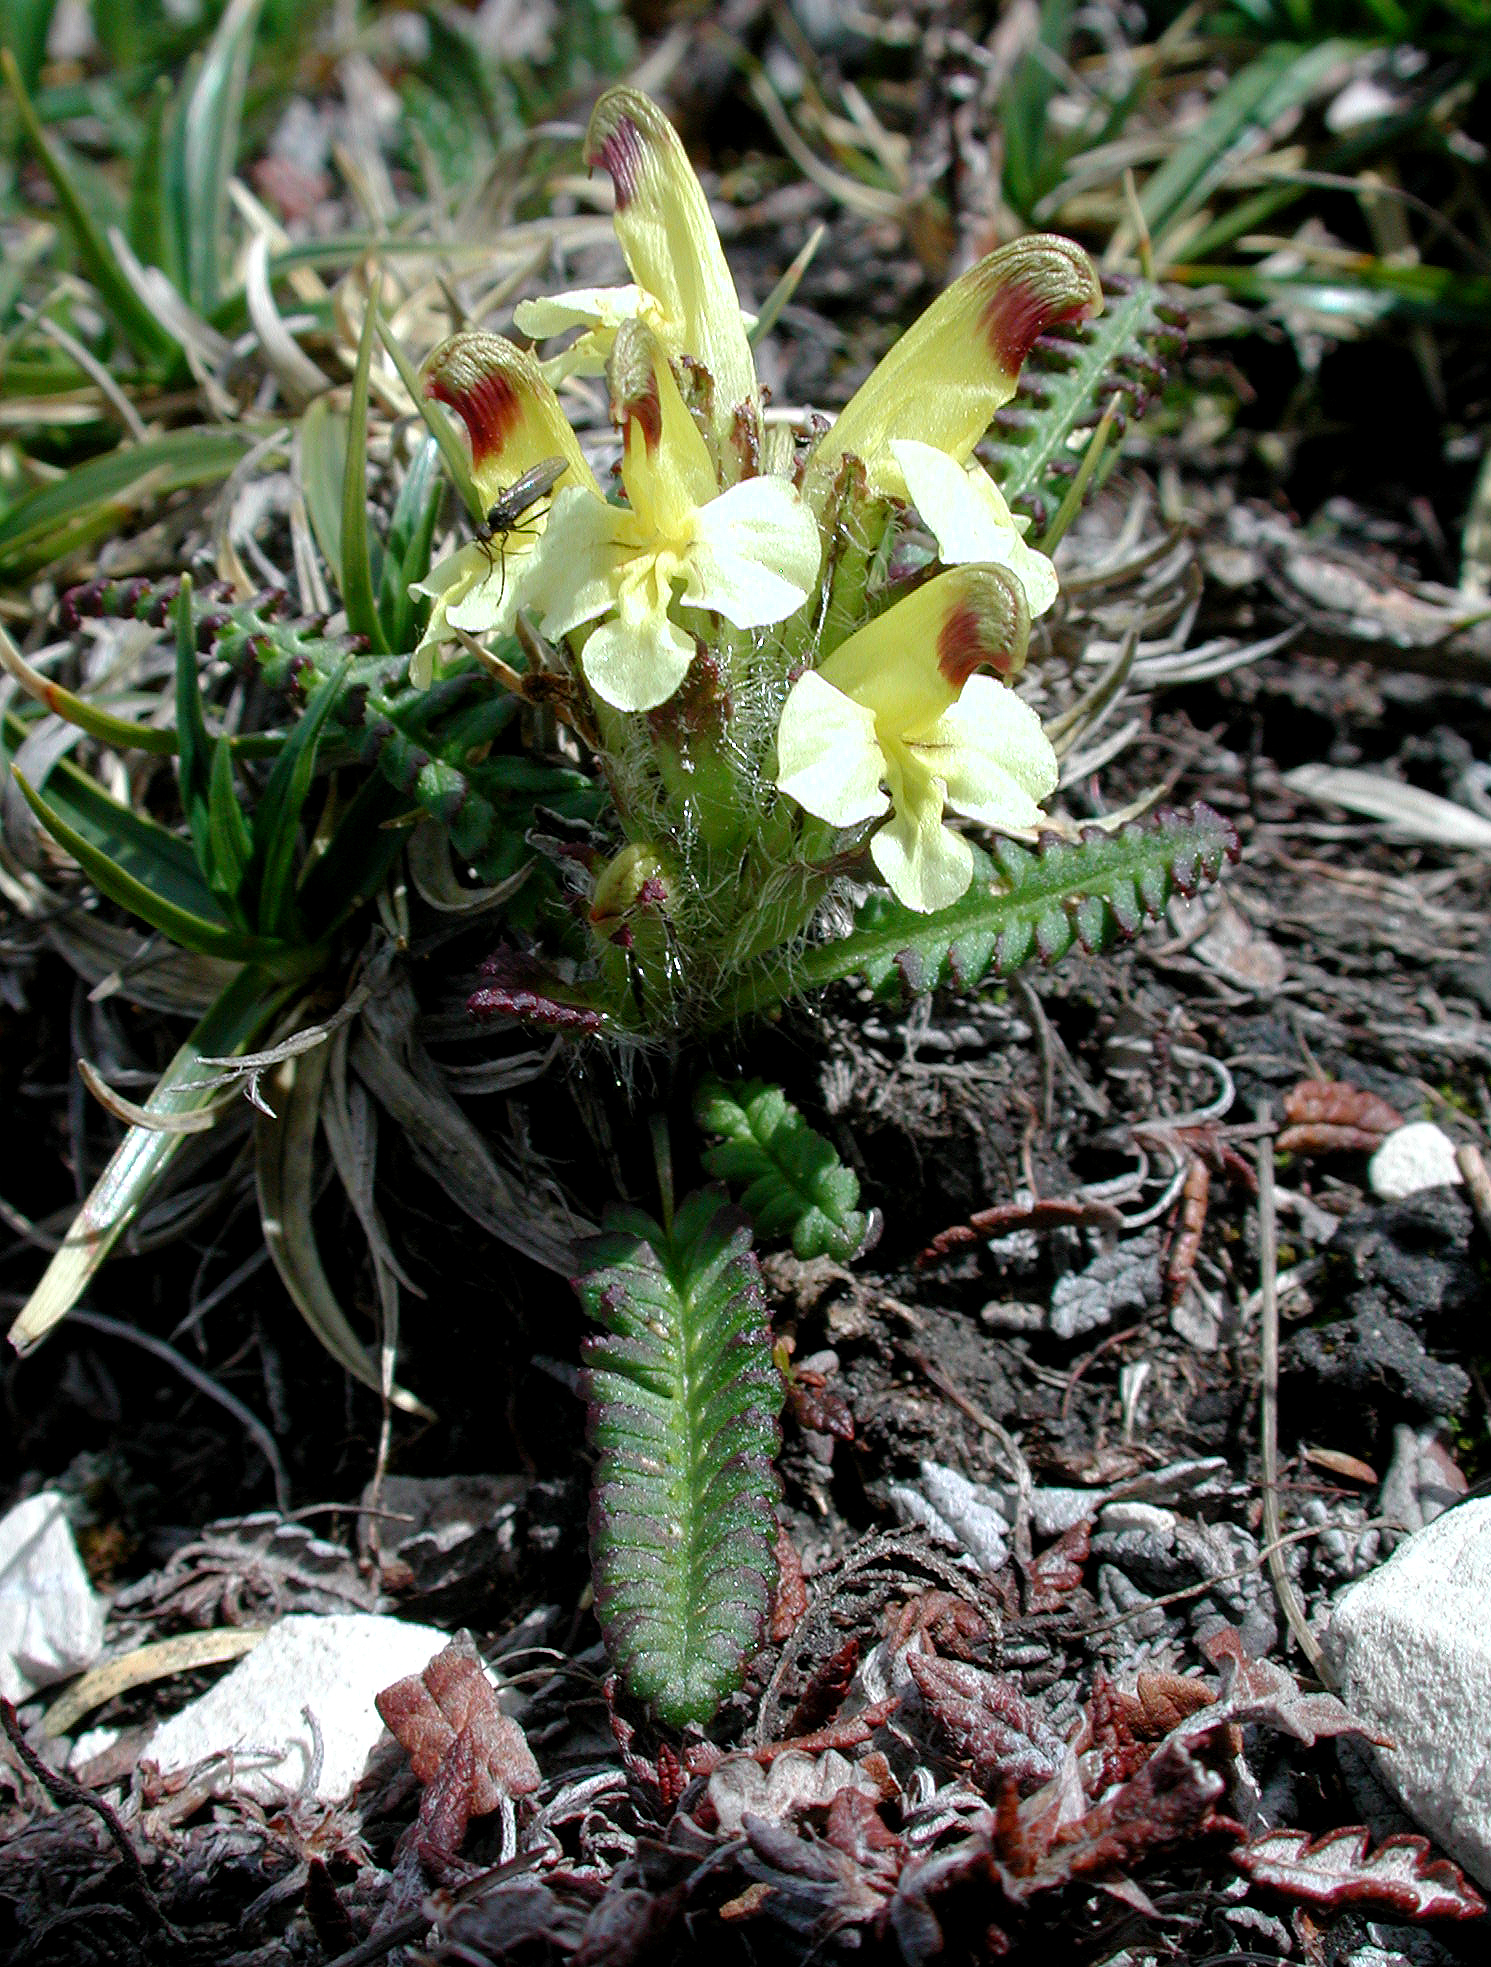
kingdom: Plantae
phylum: Tracheophyta
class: Magnoliopsida
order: Lamiales
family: Orobanchaceae
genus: Pedicularis
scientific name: Pedicularis oederi
